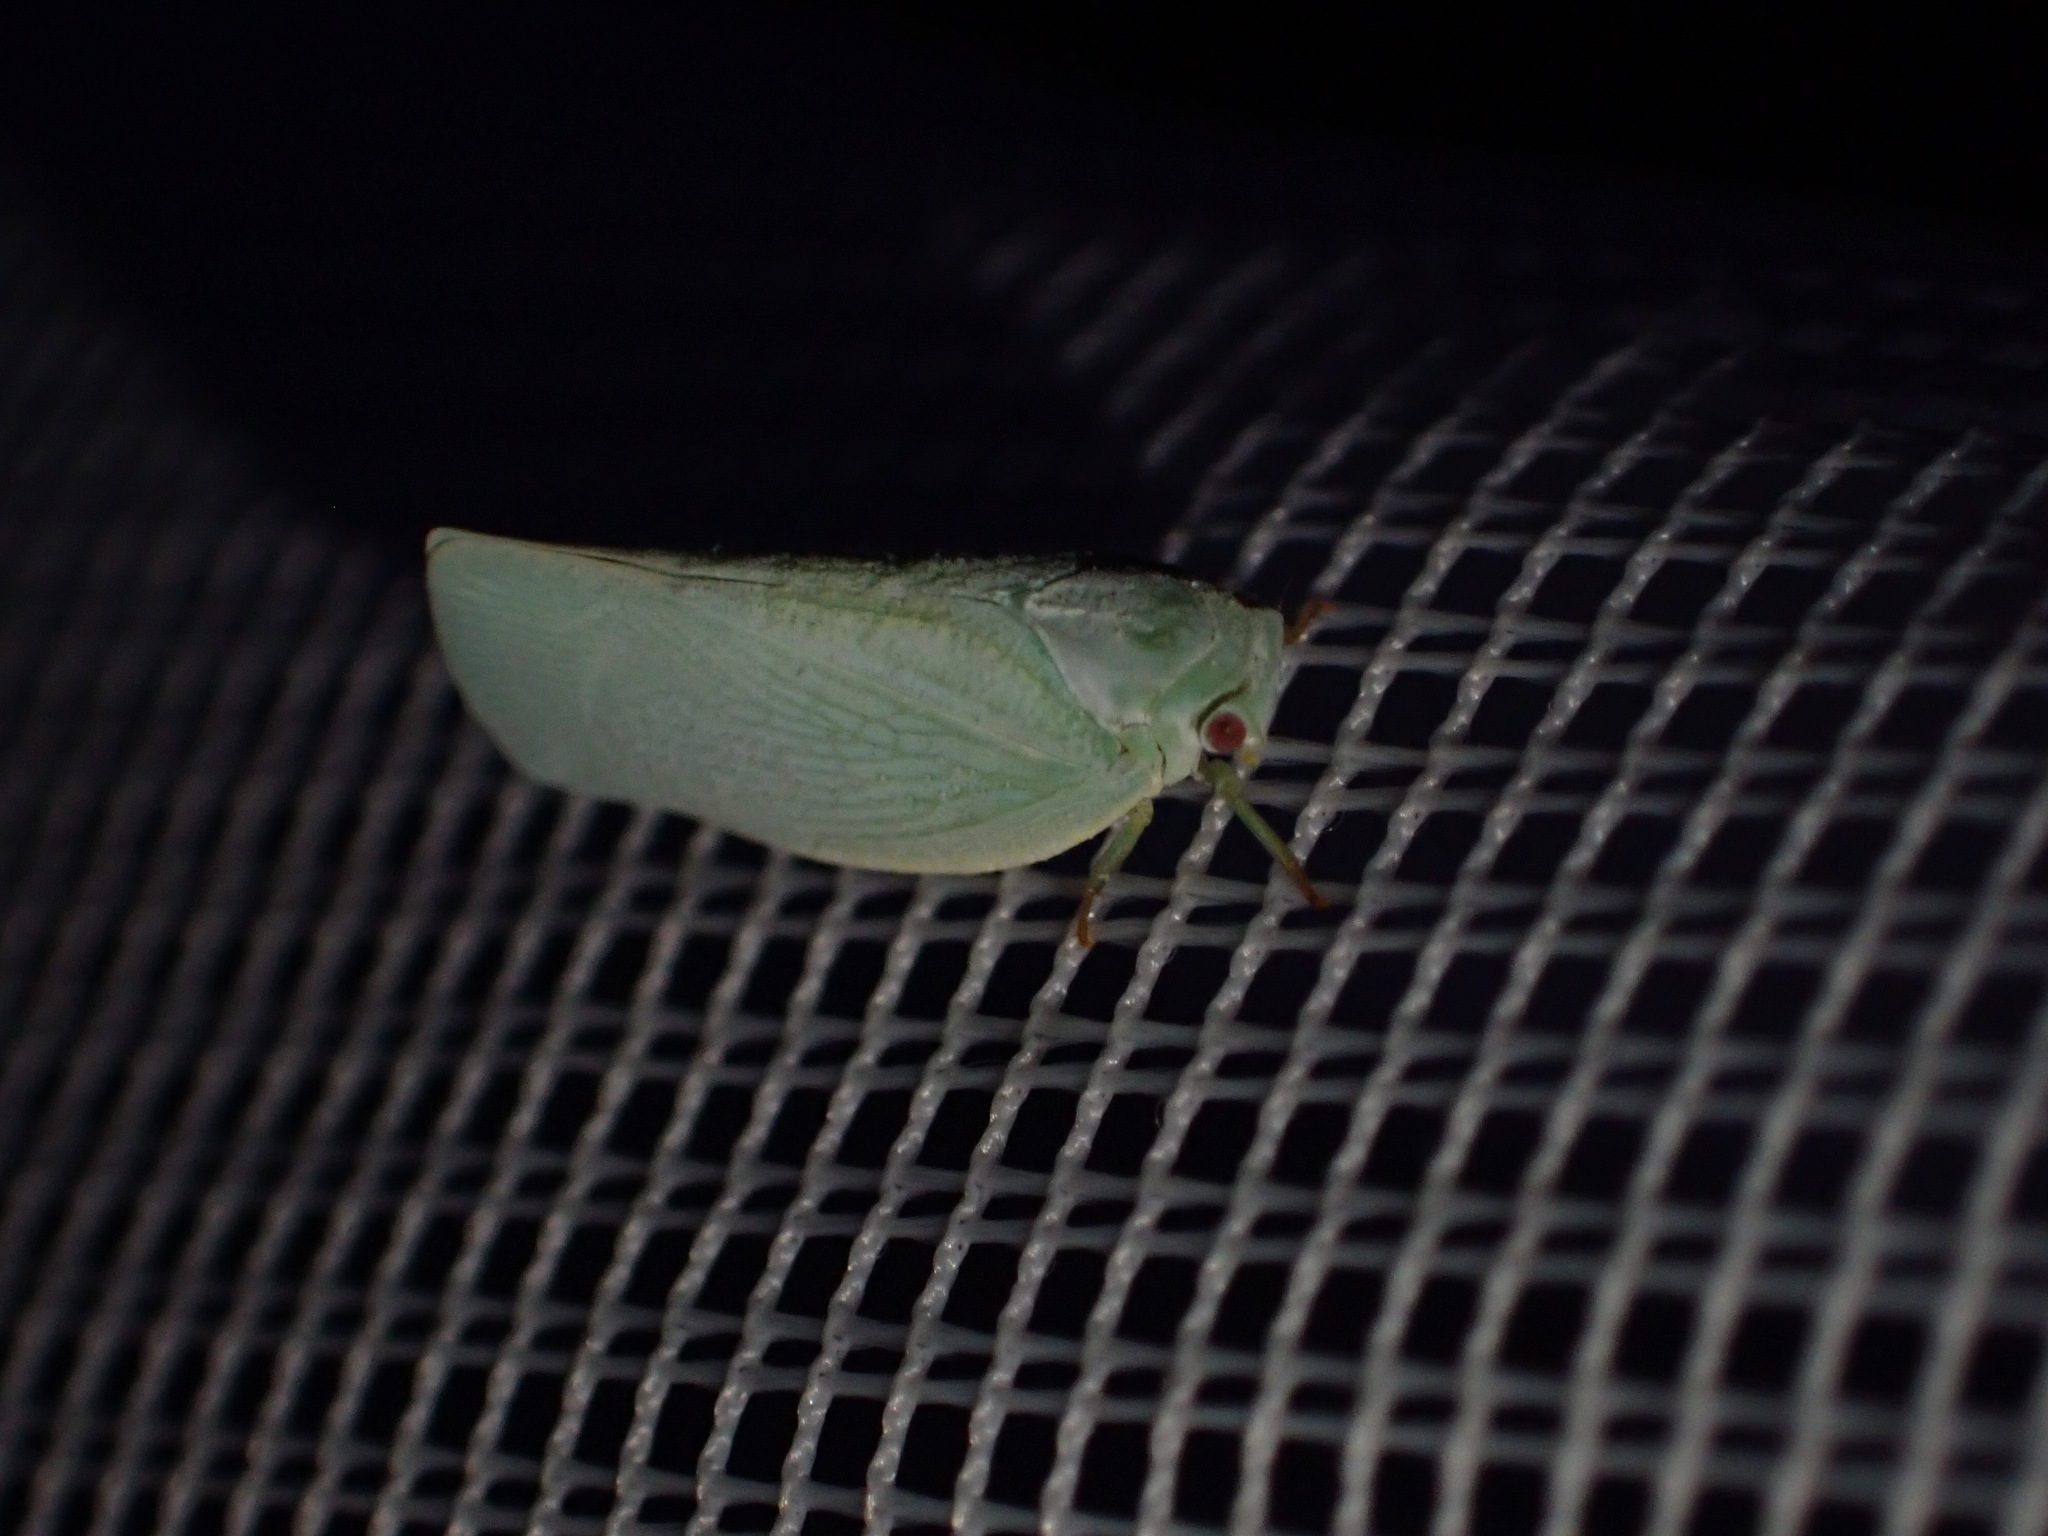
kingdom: Animalia
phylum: Arthropoda
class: Insecta
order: Hemiptera
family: Flatidae
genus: Flatormenis
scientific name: Flatormenis proxima
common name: Northern flatid planthopper
